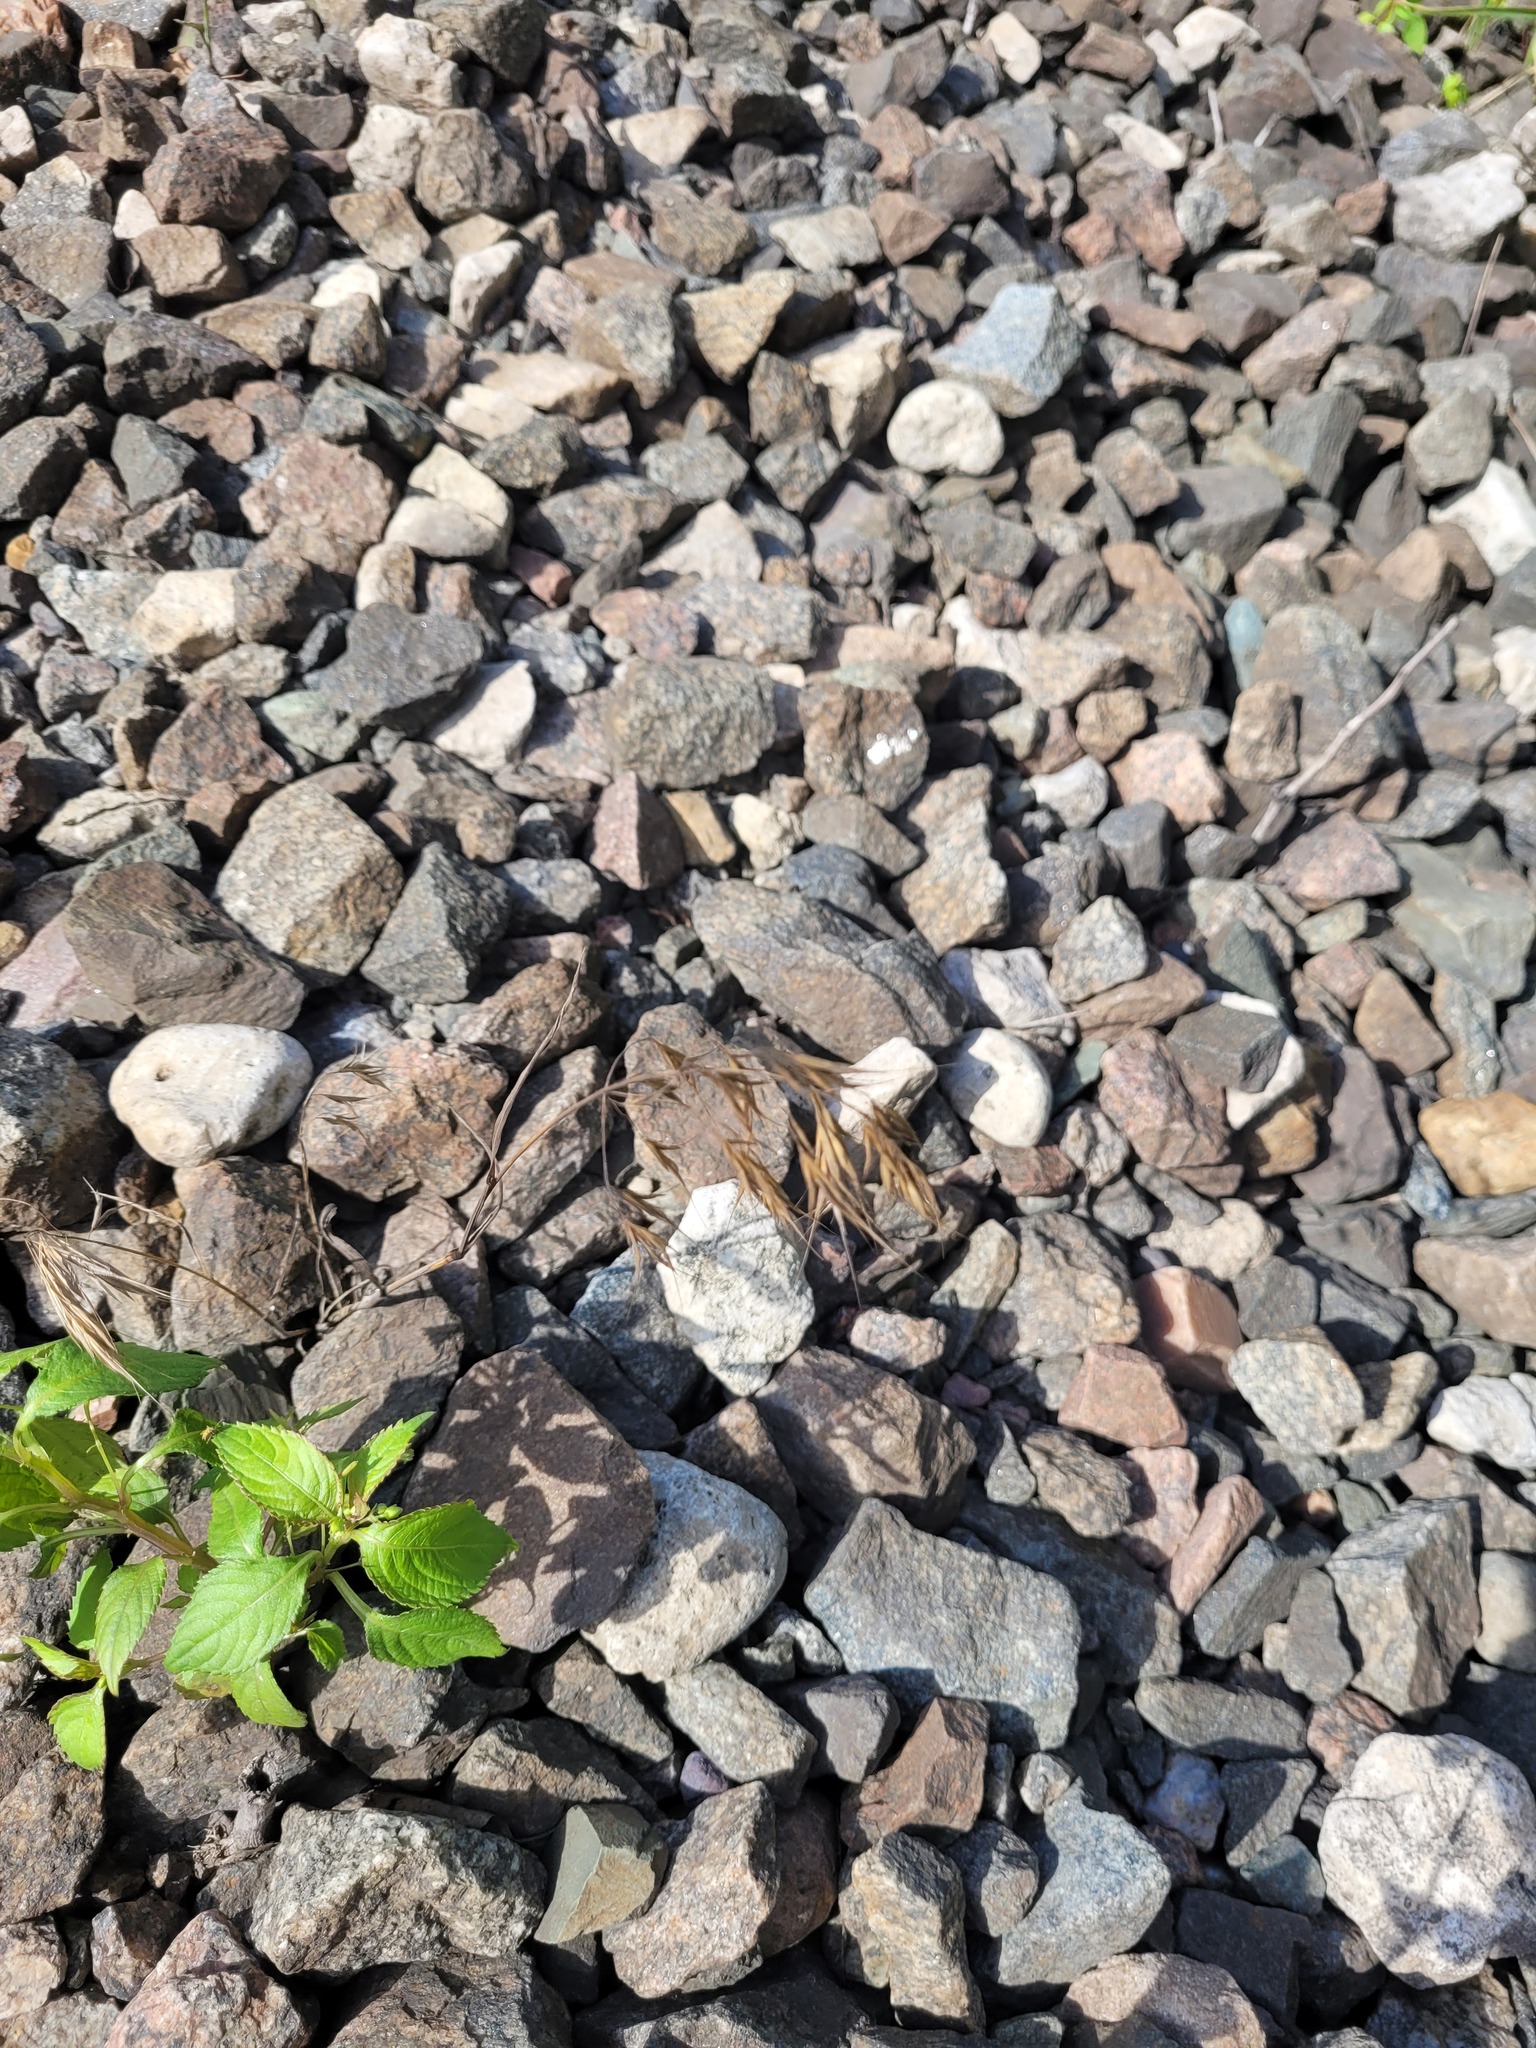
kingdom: Plantae
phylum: Tracheophyta
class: Liliopsida
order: Poales
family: Poaceae
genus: Bromus
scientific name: Bromus tectorum
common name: Cheatgrass
